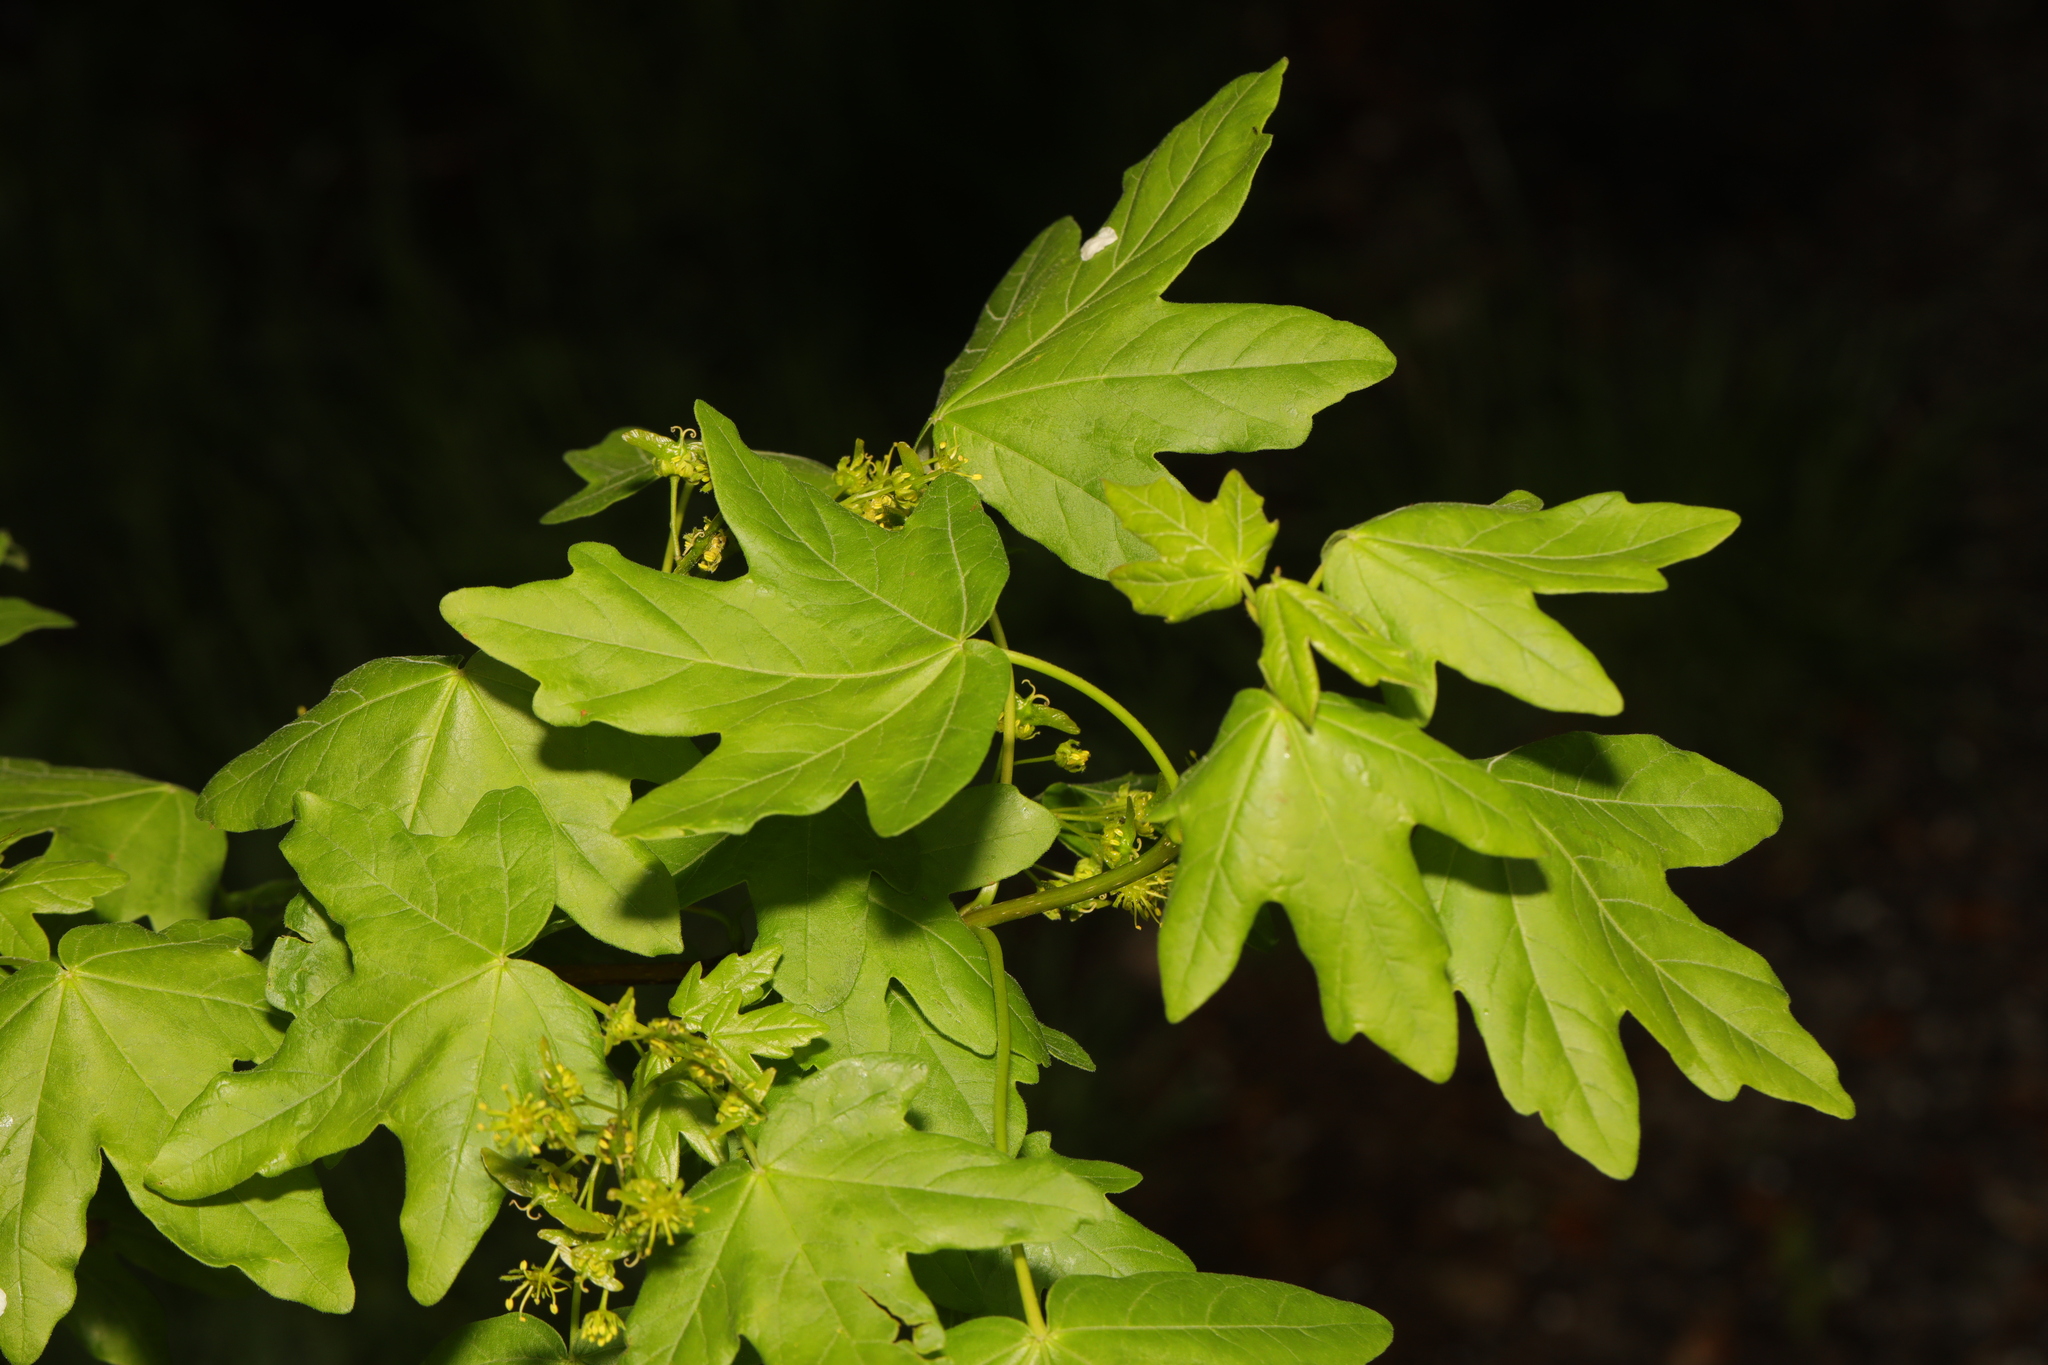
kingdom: Plantae
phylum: Tracheophyta
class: Magnoliopsida
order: Sapindales
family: Sapindaceae
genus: Acer
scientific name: Acer campestre
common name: Field maple
